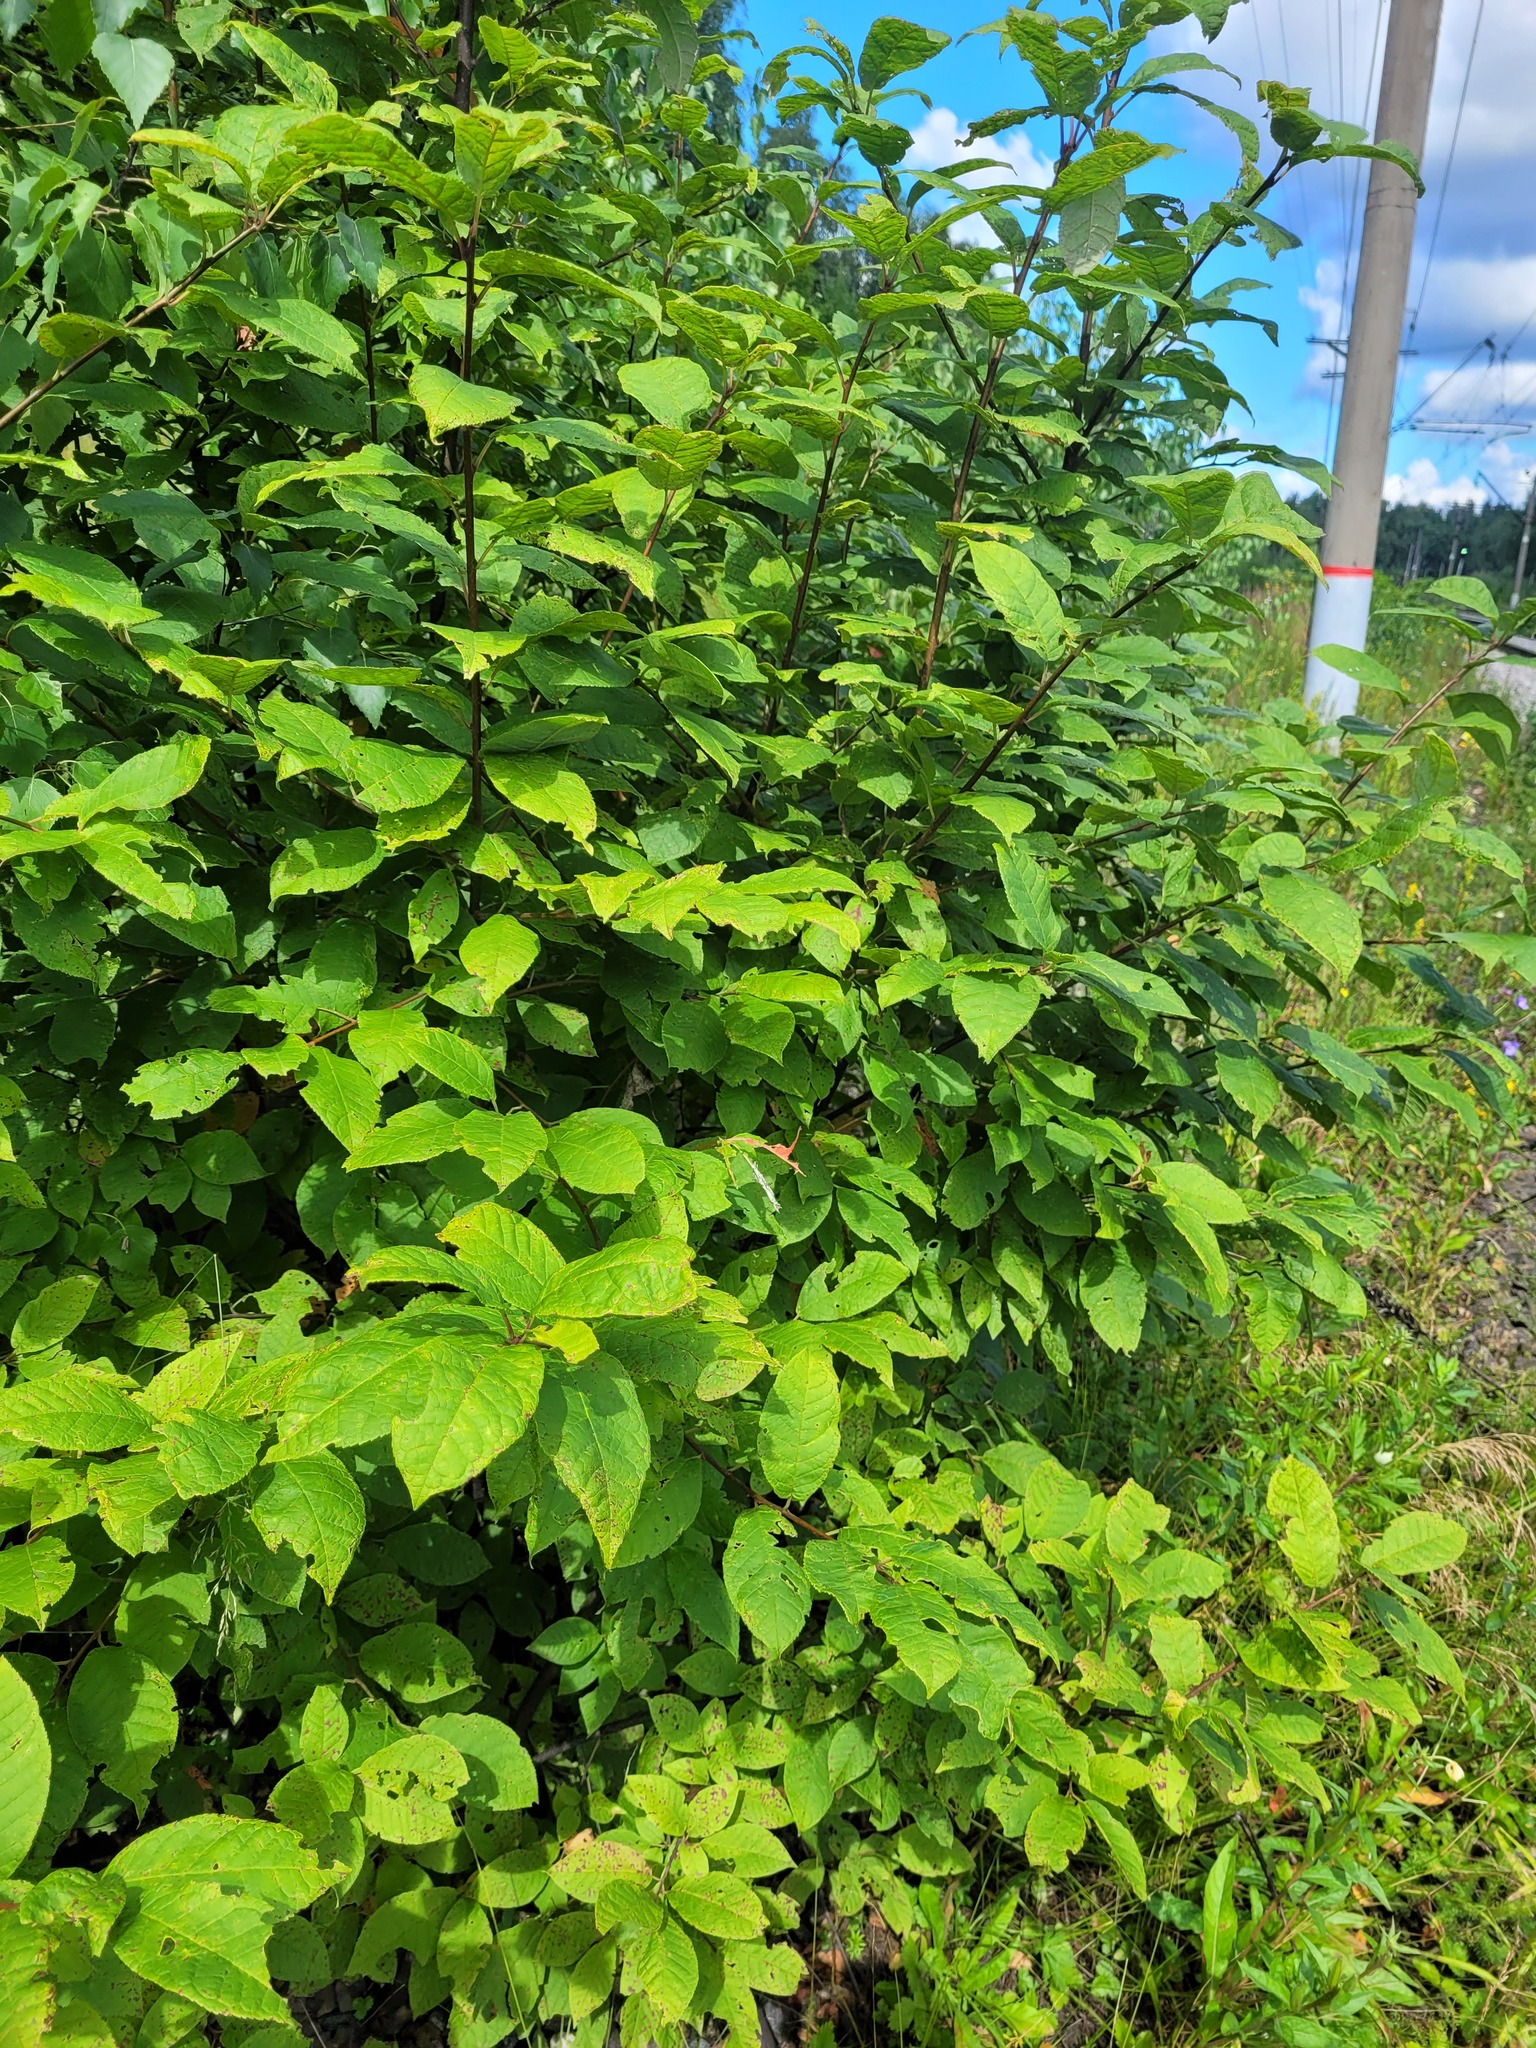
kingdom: Plantae
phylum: Tracheophyta
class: Magnoliopsida
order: Rosales
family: Rosaceae
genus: Prunus
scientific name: Prunus padus
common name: Bird cherry
